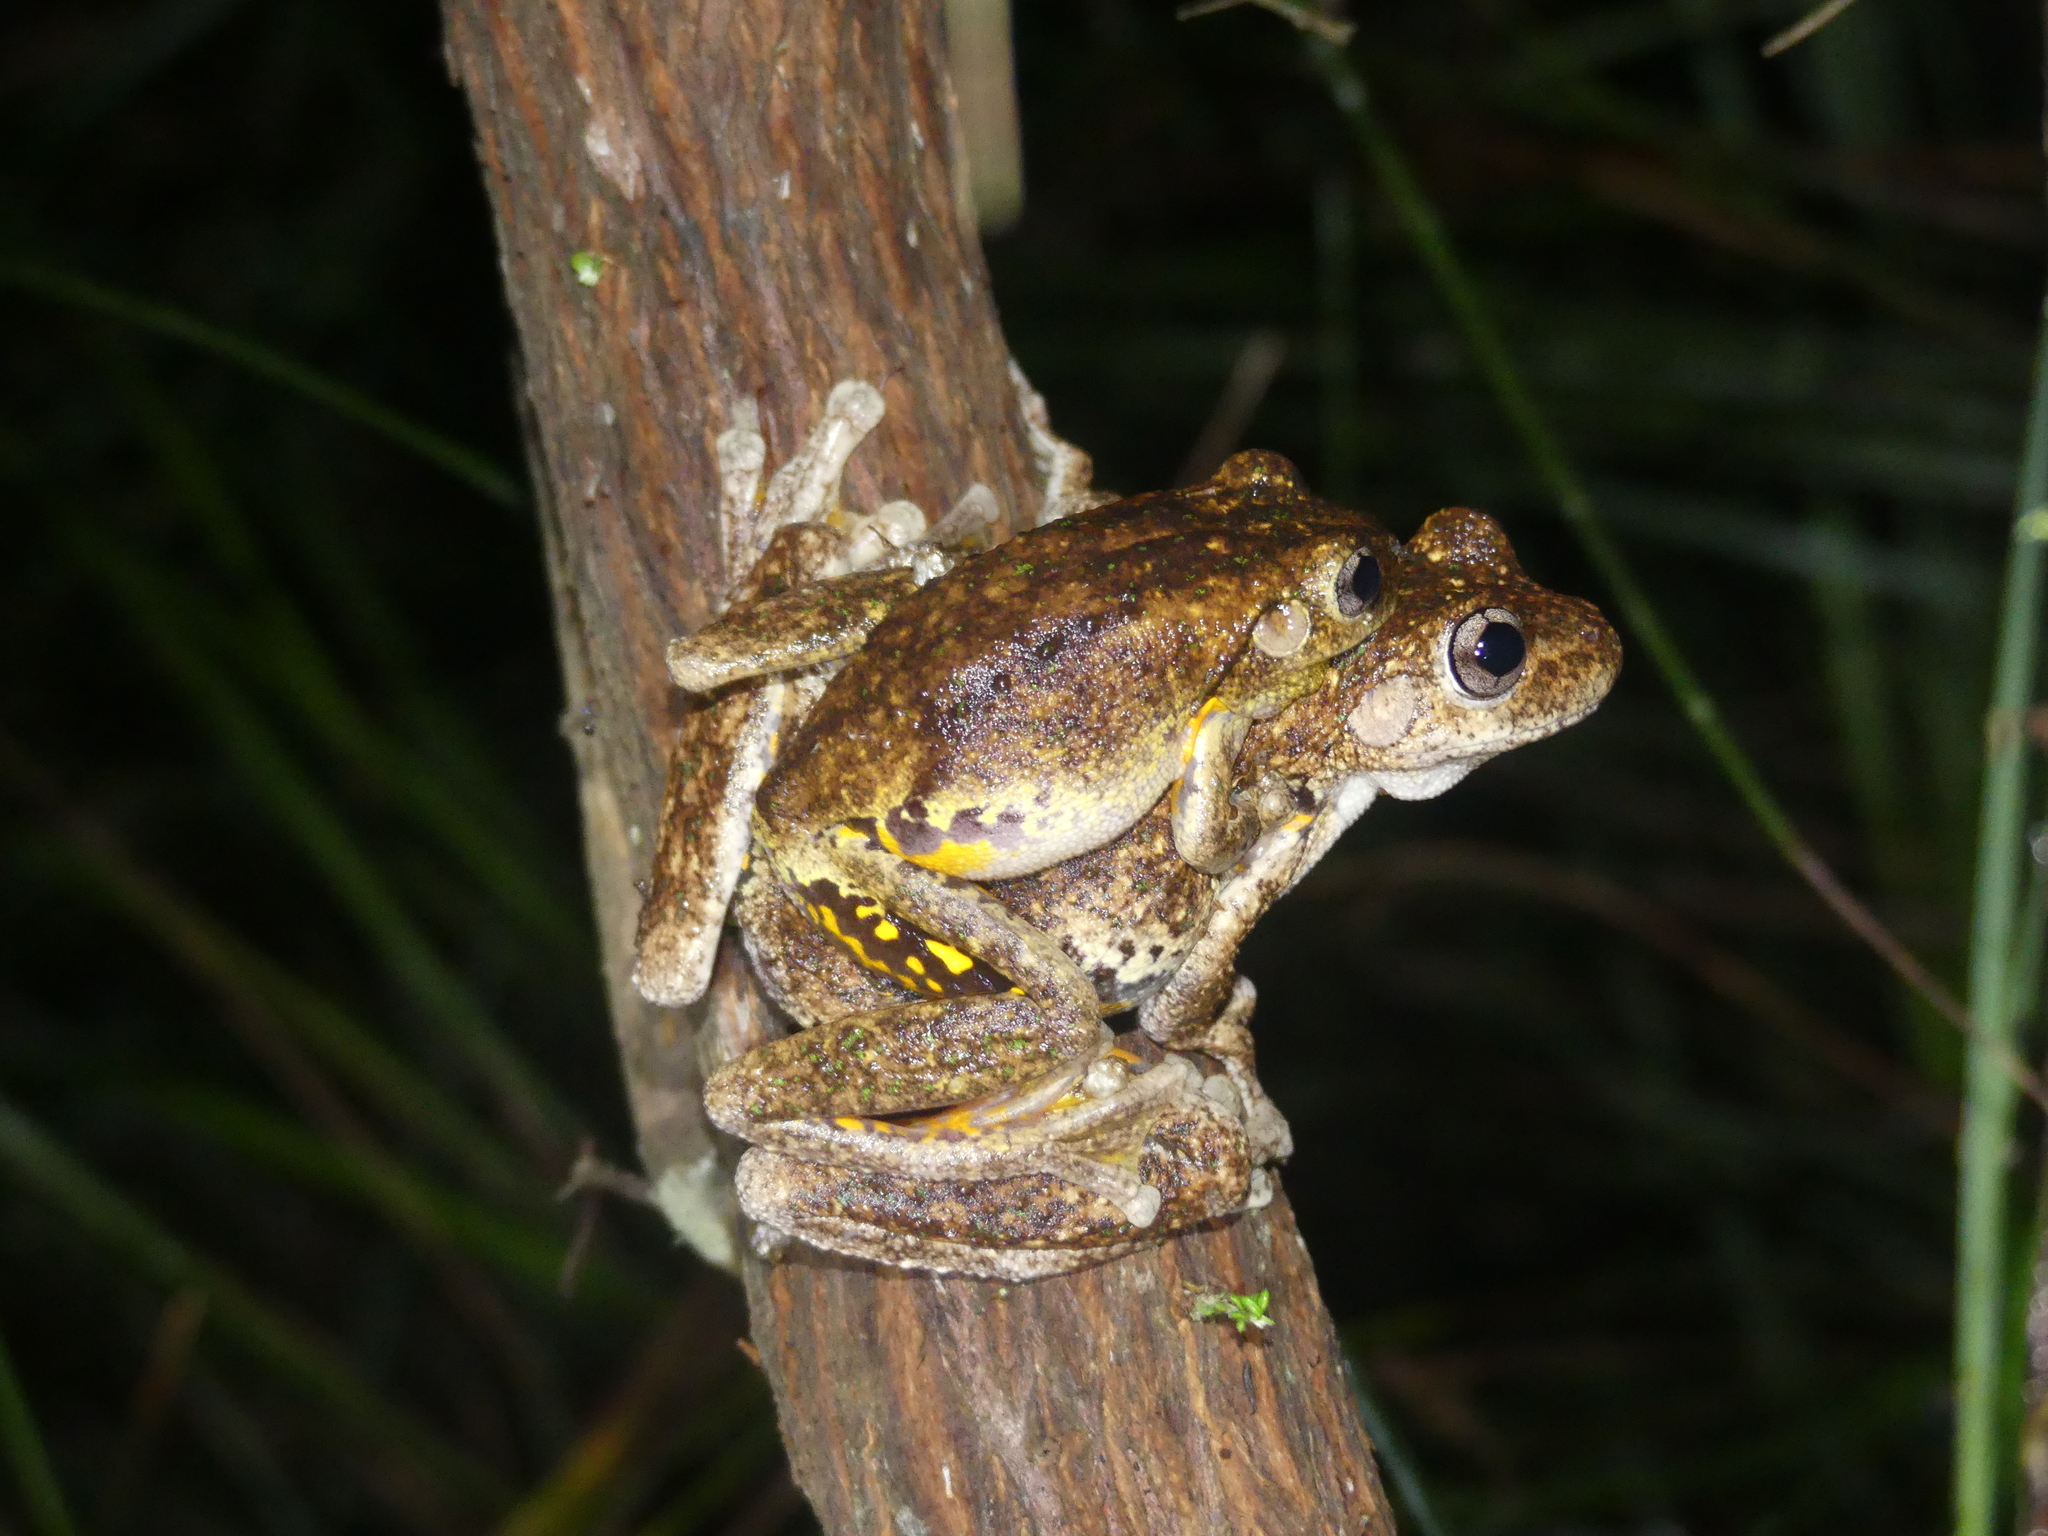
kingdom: Animalia
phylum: Chordata
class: Amphibia
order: Anura
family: Pelodryadidae
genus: Litoria
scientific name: Litoria peronii
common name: Emerald spotted treefrog
